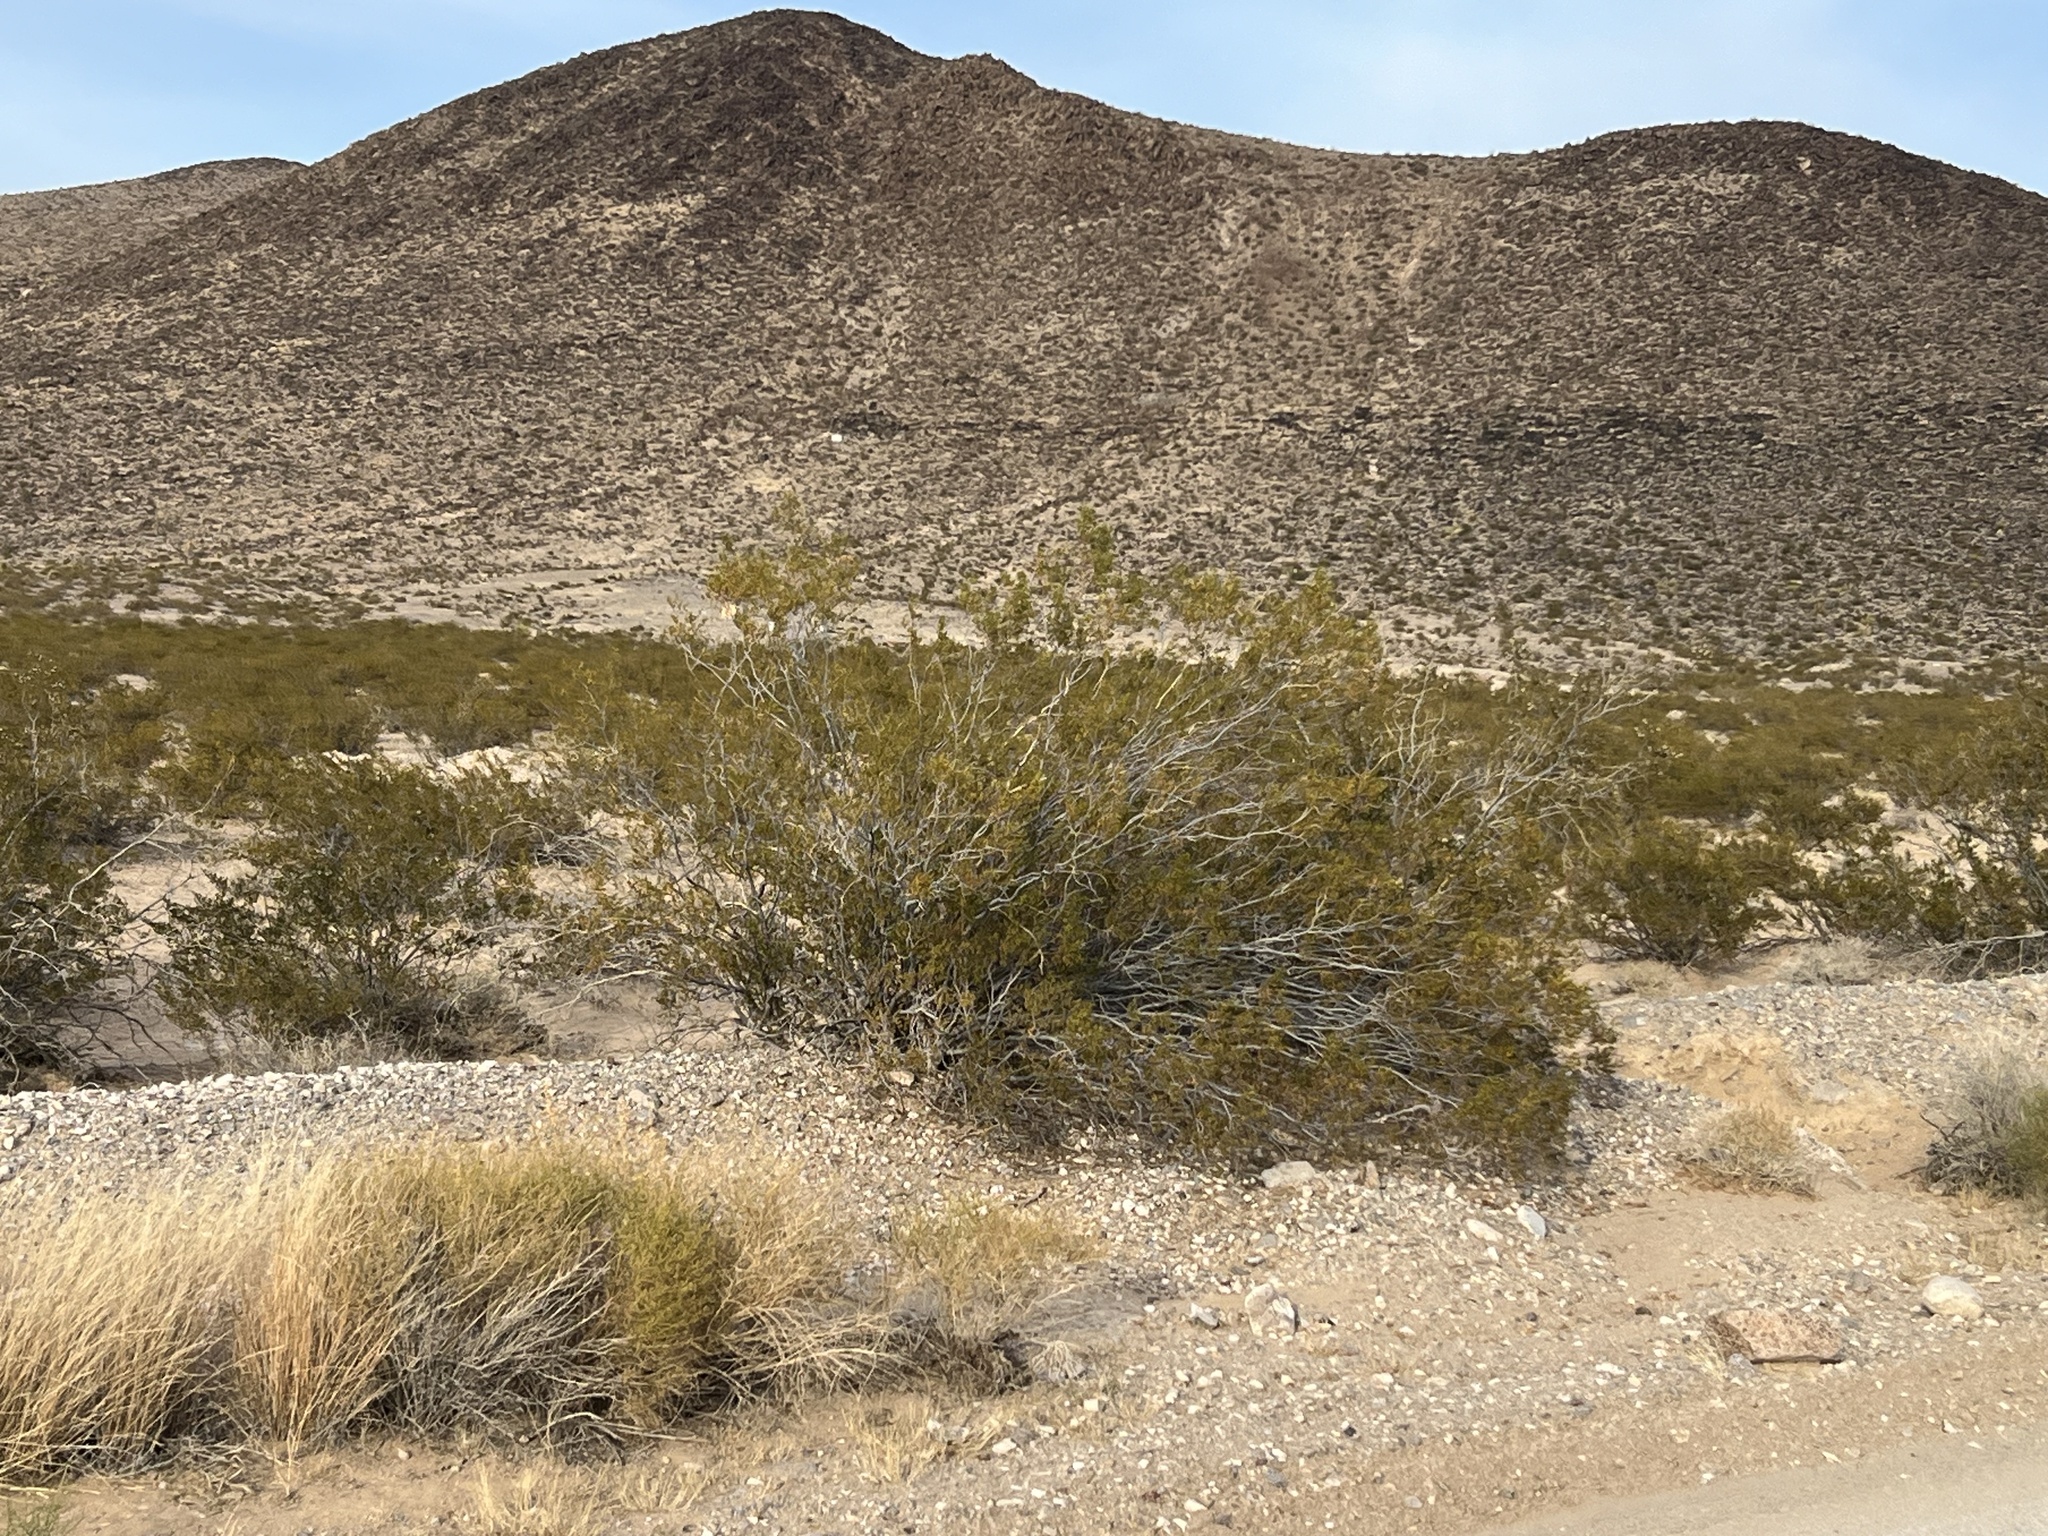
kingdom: Plantae
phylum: Tracheophyta
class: Magnoliopsida
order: Zygophyllales
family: Zygophyllaceae
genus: Larrea
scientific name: Larrea tridentata
